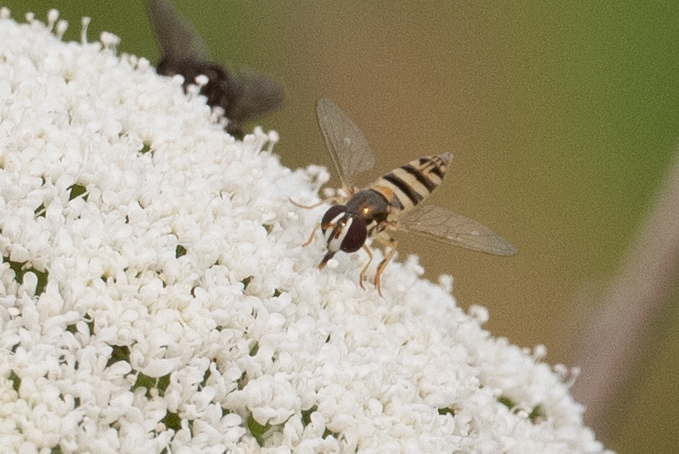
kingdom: Animalia
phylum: Arthropoda
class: Insecta
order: Diptera
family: Syrphidae
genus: Allograpta
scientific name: Allograpta exotica
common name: Syrphid fly
